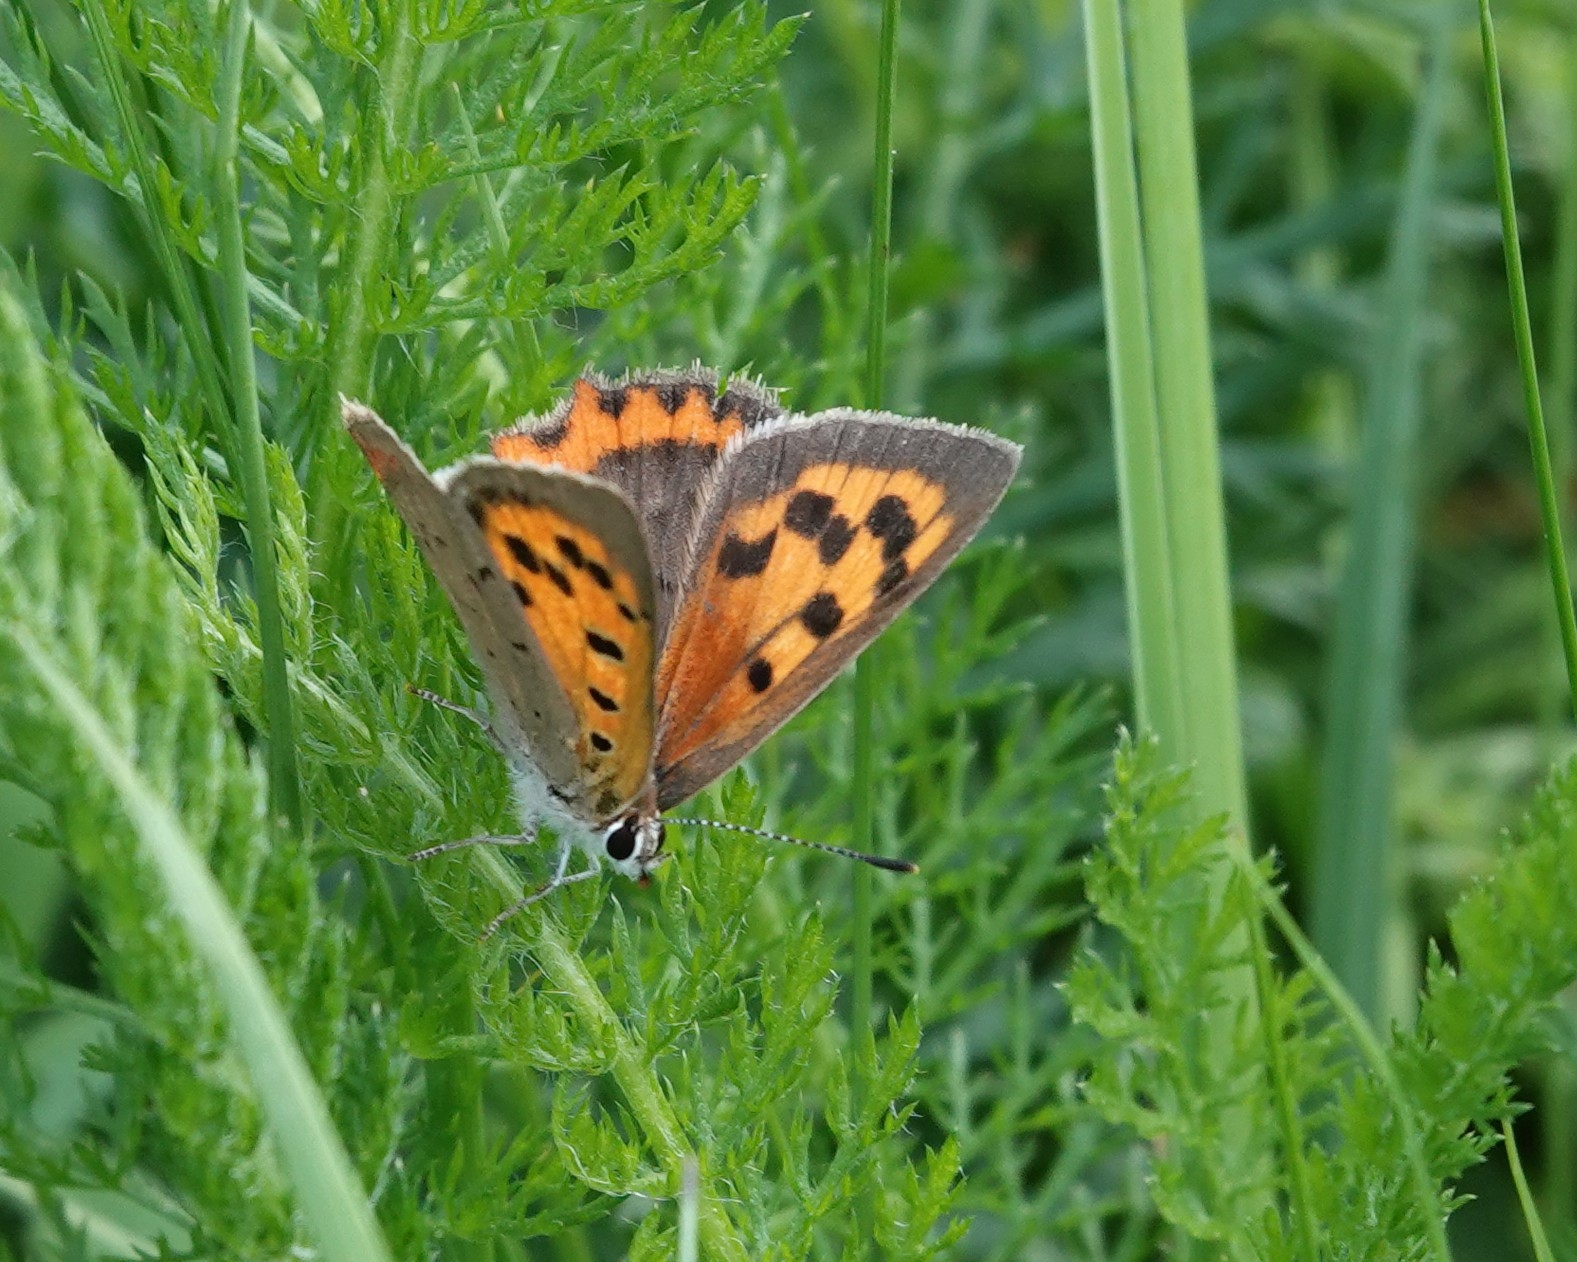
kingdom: Animalia
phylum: Arthropoda
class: Insecta
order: Lepidoptera
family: Lycaenidae
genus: Lycaena
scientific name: Lycaena phlaeas
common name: Small copper
